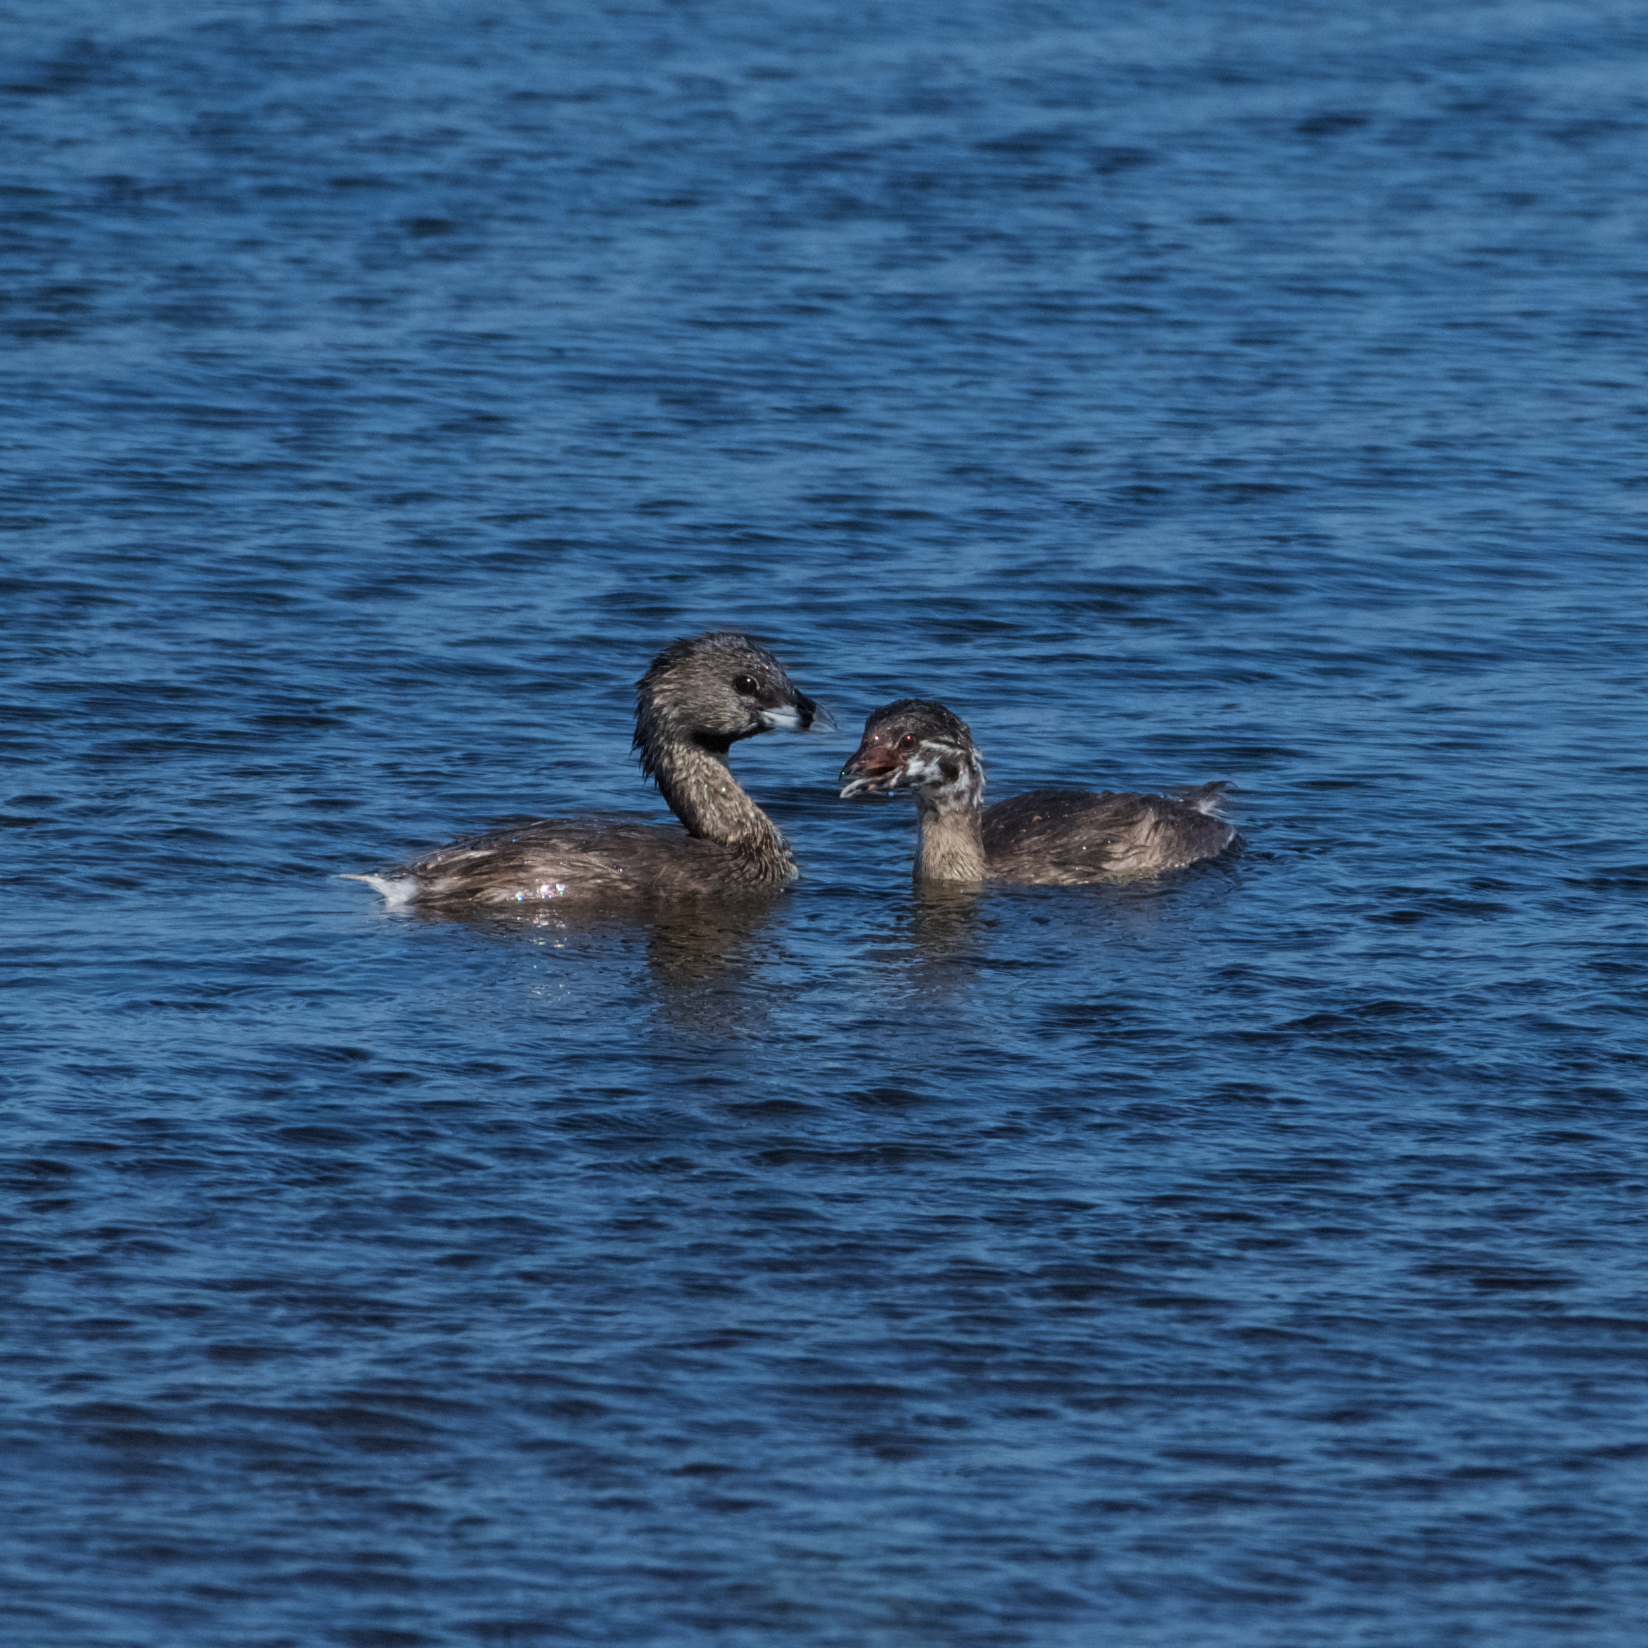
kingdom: Animalia
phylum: Chordata
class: Aves
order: Podicipediformes
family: Podicipedidae
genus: Podilymbus
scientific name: Podilymbus podiceps
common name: Pied-billed grebe
